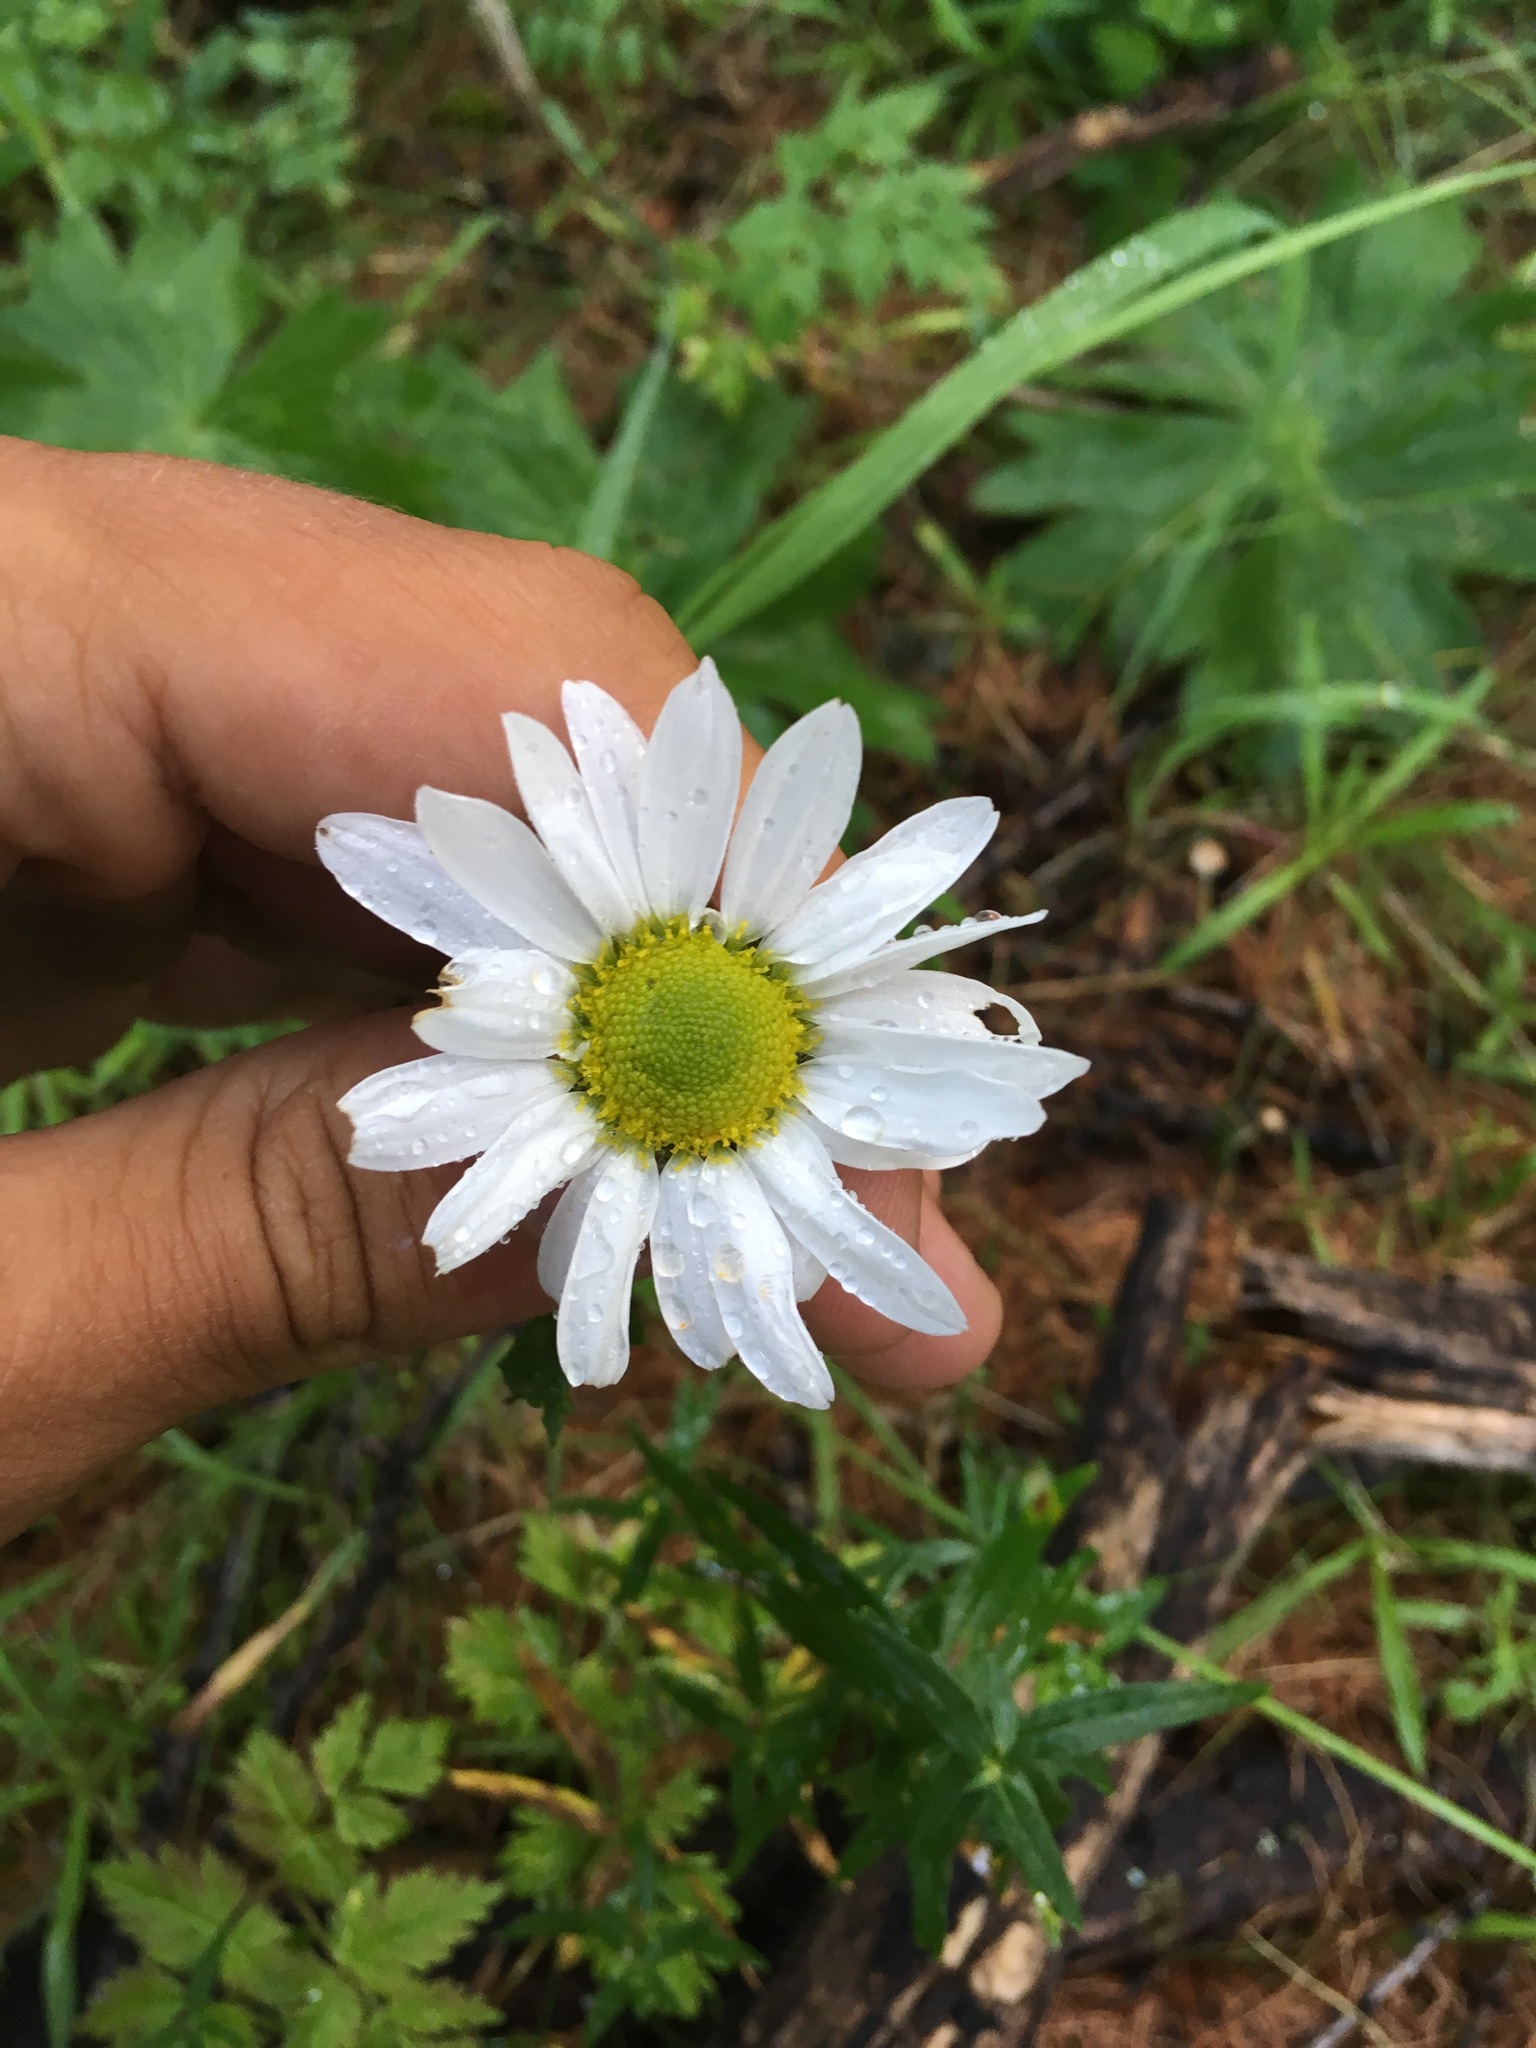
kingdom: Plantae
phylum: Tracheophyta
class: Magnoliopsida
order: Asterales
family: Asteraceae
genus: Chrysanthemum
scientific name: Chrysanthemum zawadzkii
